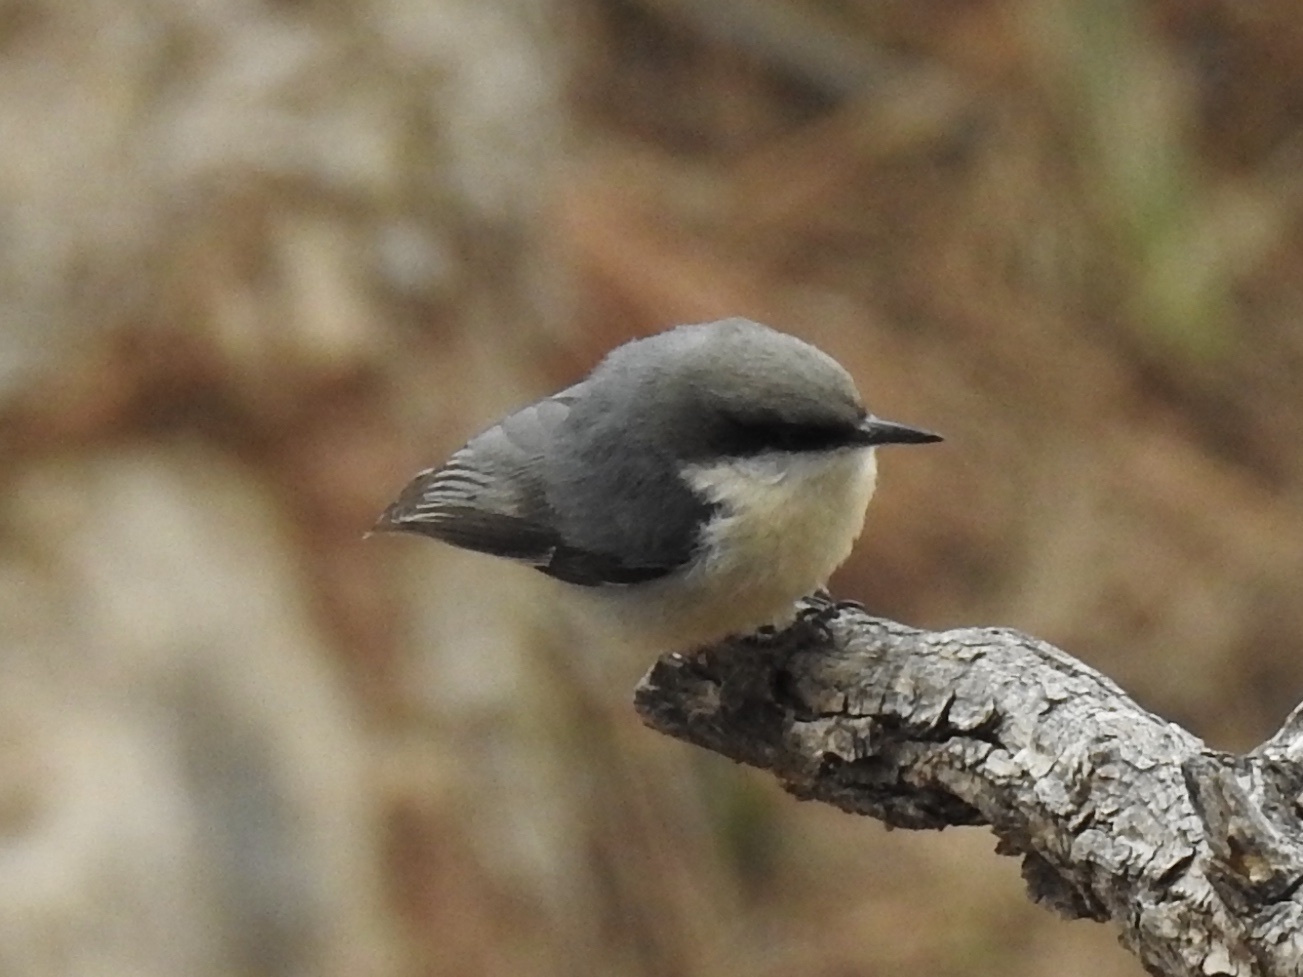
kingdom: Animalia
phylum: Chordata
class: Aves
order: Passeriformes
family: Sittidae
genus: Sitta
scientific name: Sitta pygmaea
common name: Pygmy nuthatch
